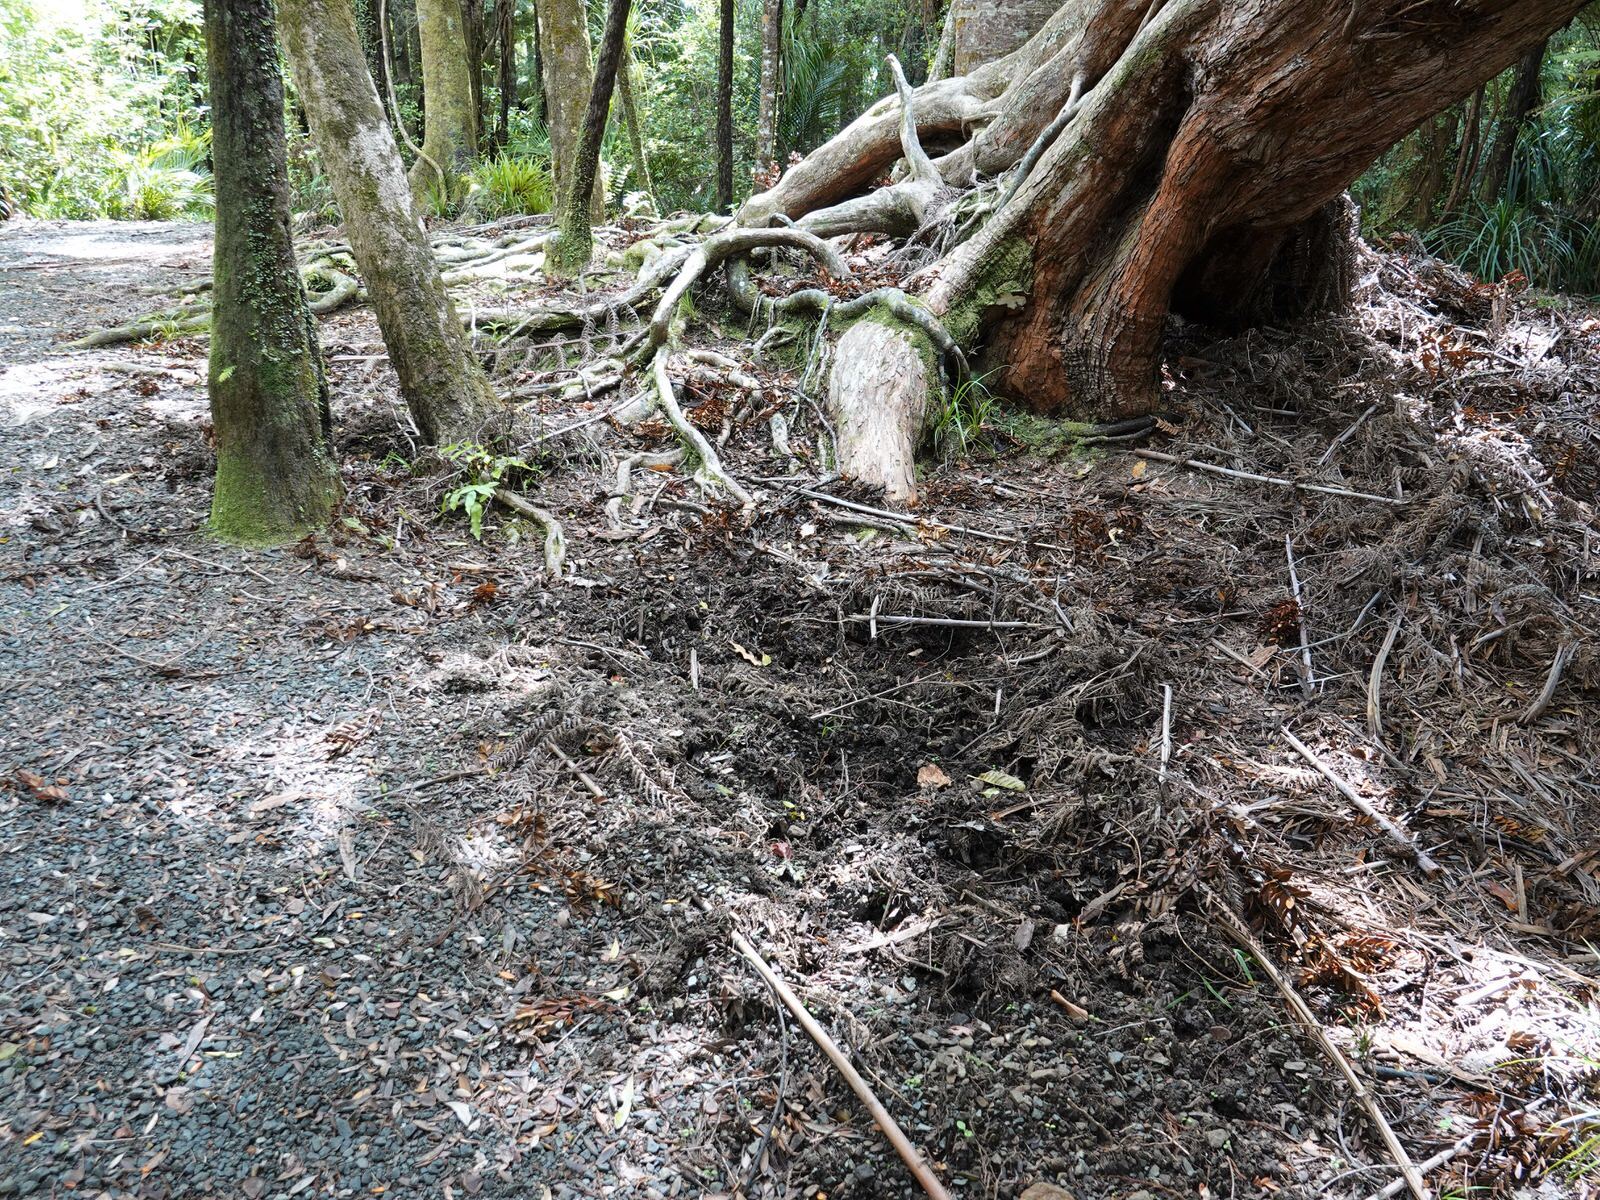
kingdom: Animalia
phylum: Chordata
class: Mammalia
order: Artiodactyla
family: Suidae
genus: Sus
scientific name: Sus scrofa
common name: Wild boar
